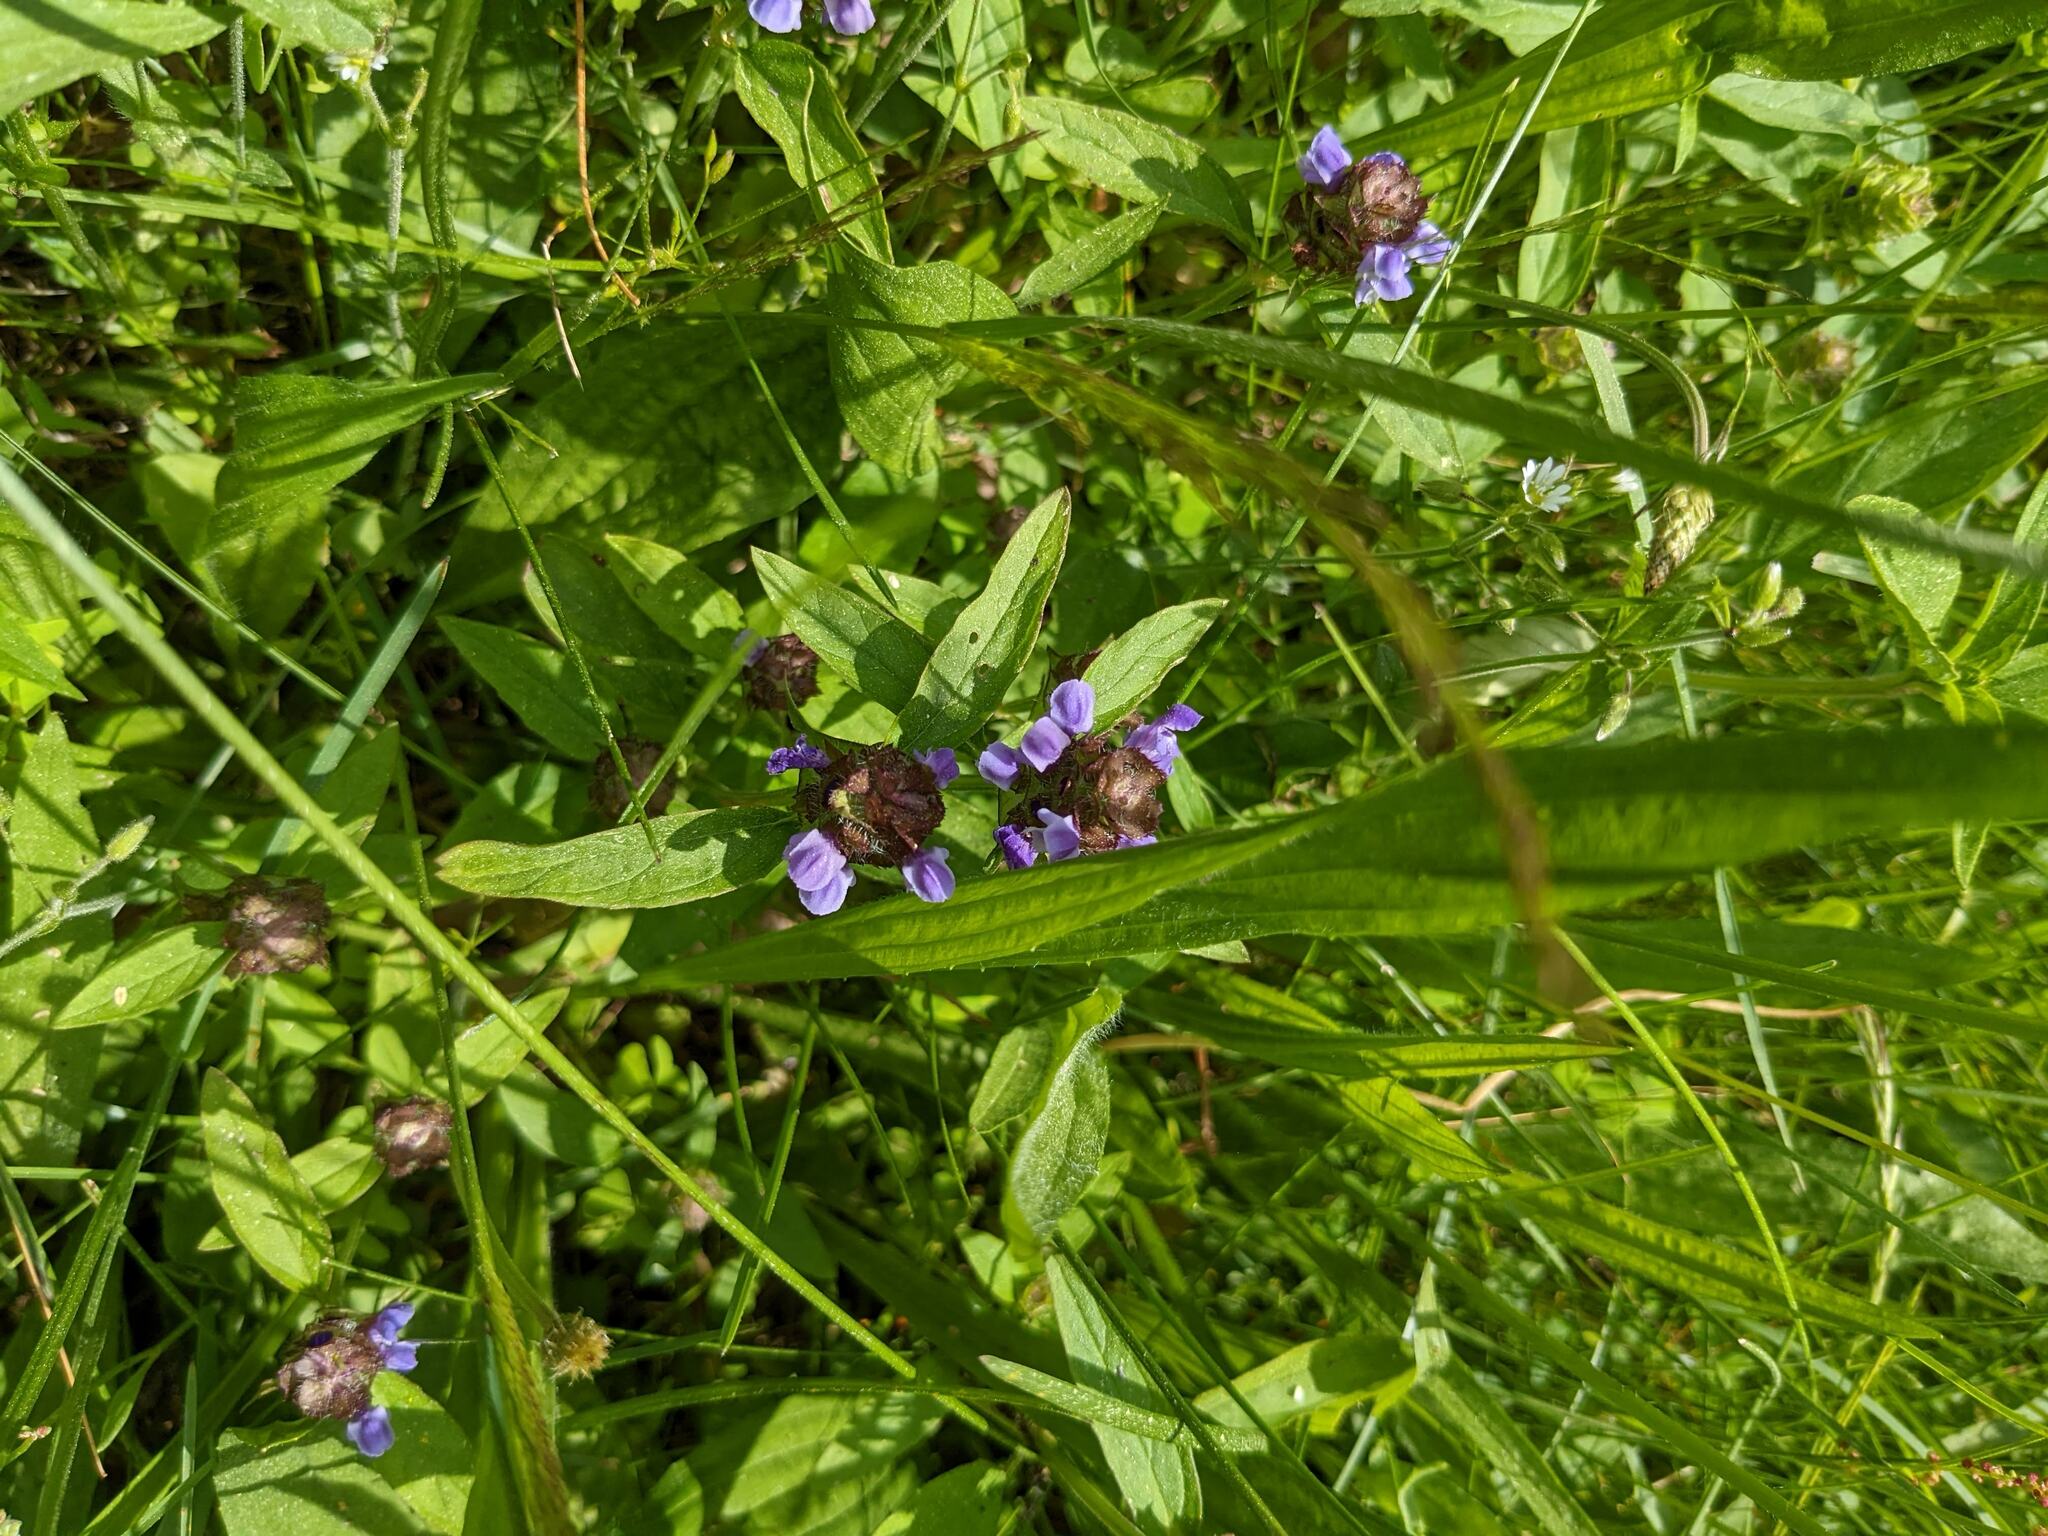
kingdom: Plantae
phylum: Tracheophyta
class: Magnoliopsida
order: Lamiales
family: Lamiaceae
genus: Prunella
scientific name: Prunella vulgaris
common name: Heal-all
